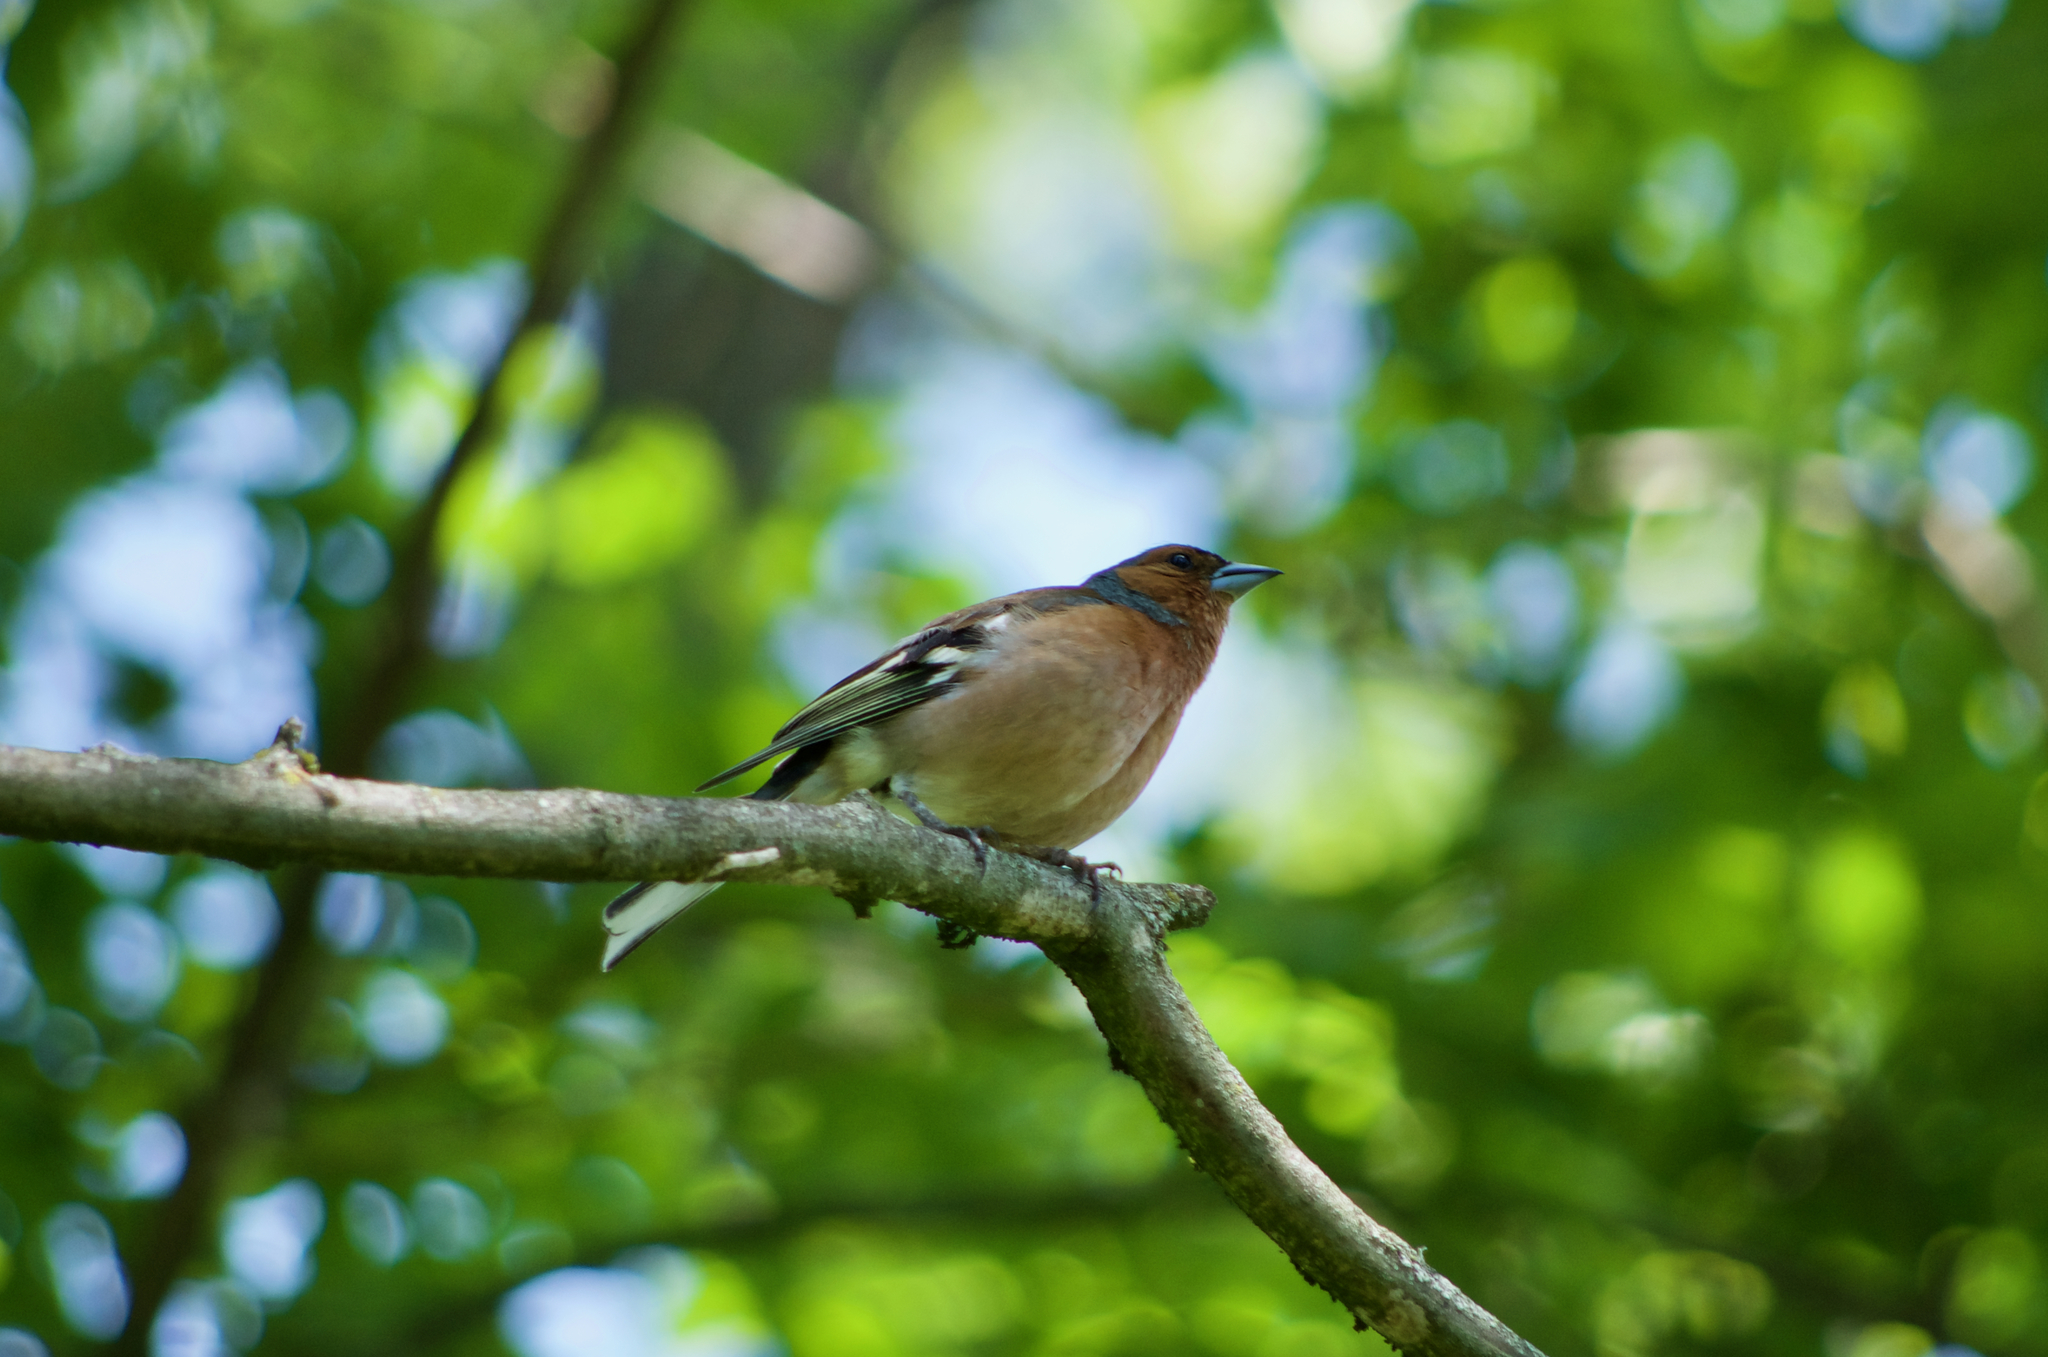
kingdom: Animalia
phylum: Chordata
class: Aves
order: Passeriformes
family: Fringillidae
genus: Fringilla
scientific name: Fringilla coelebs
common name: Common chaffinch
